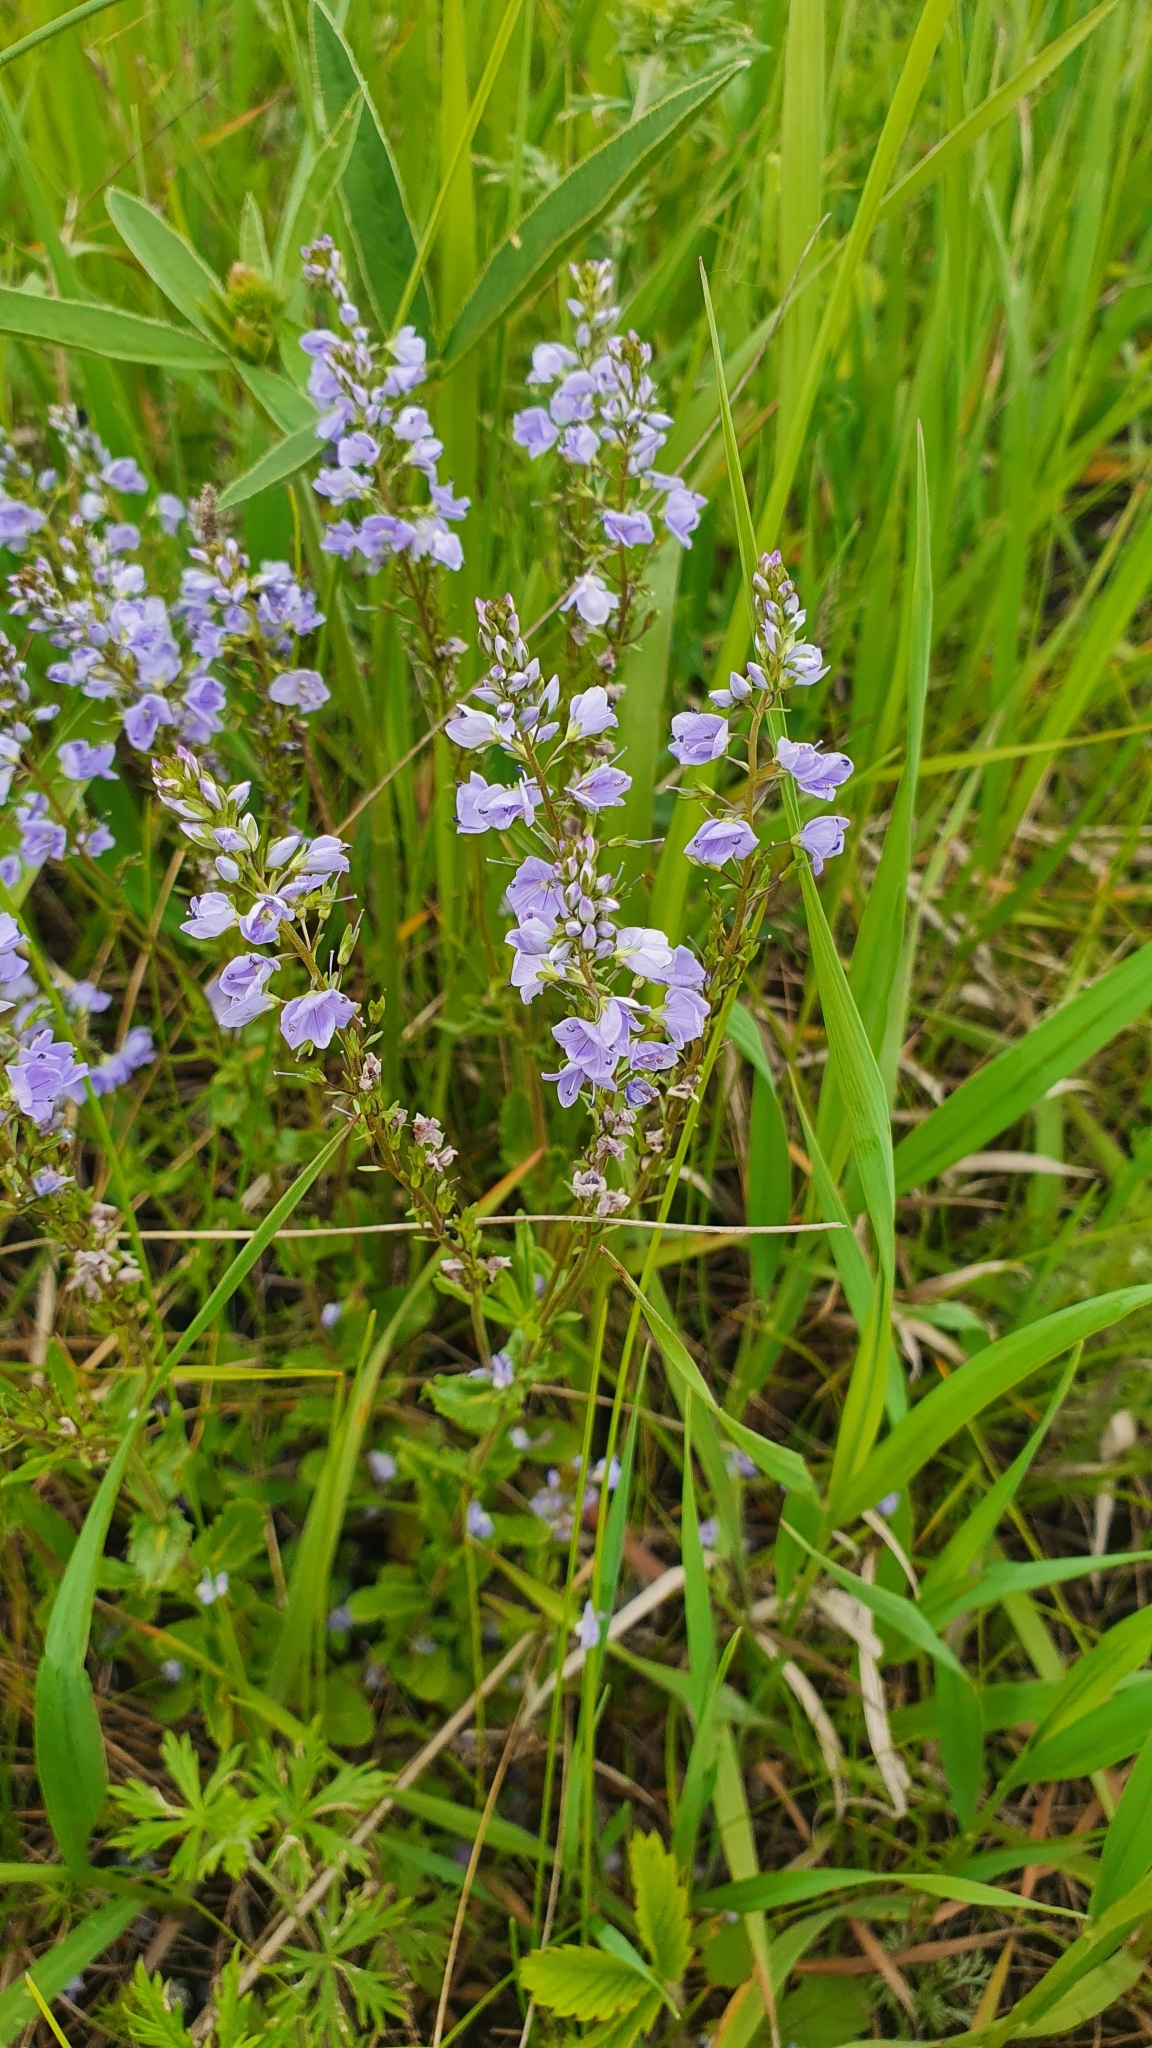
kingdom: Plantae
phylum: Tracheophyta
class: Magnoliopsida
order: Lamiales
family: Plantaginaceae
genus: Veronica
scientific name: Veronica prostrata
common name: Prostrate speedwell
